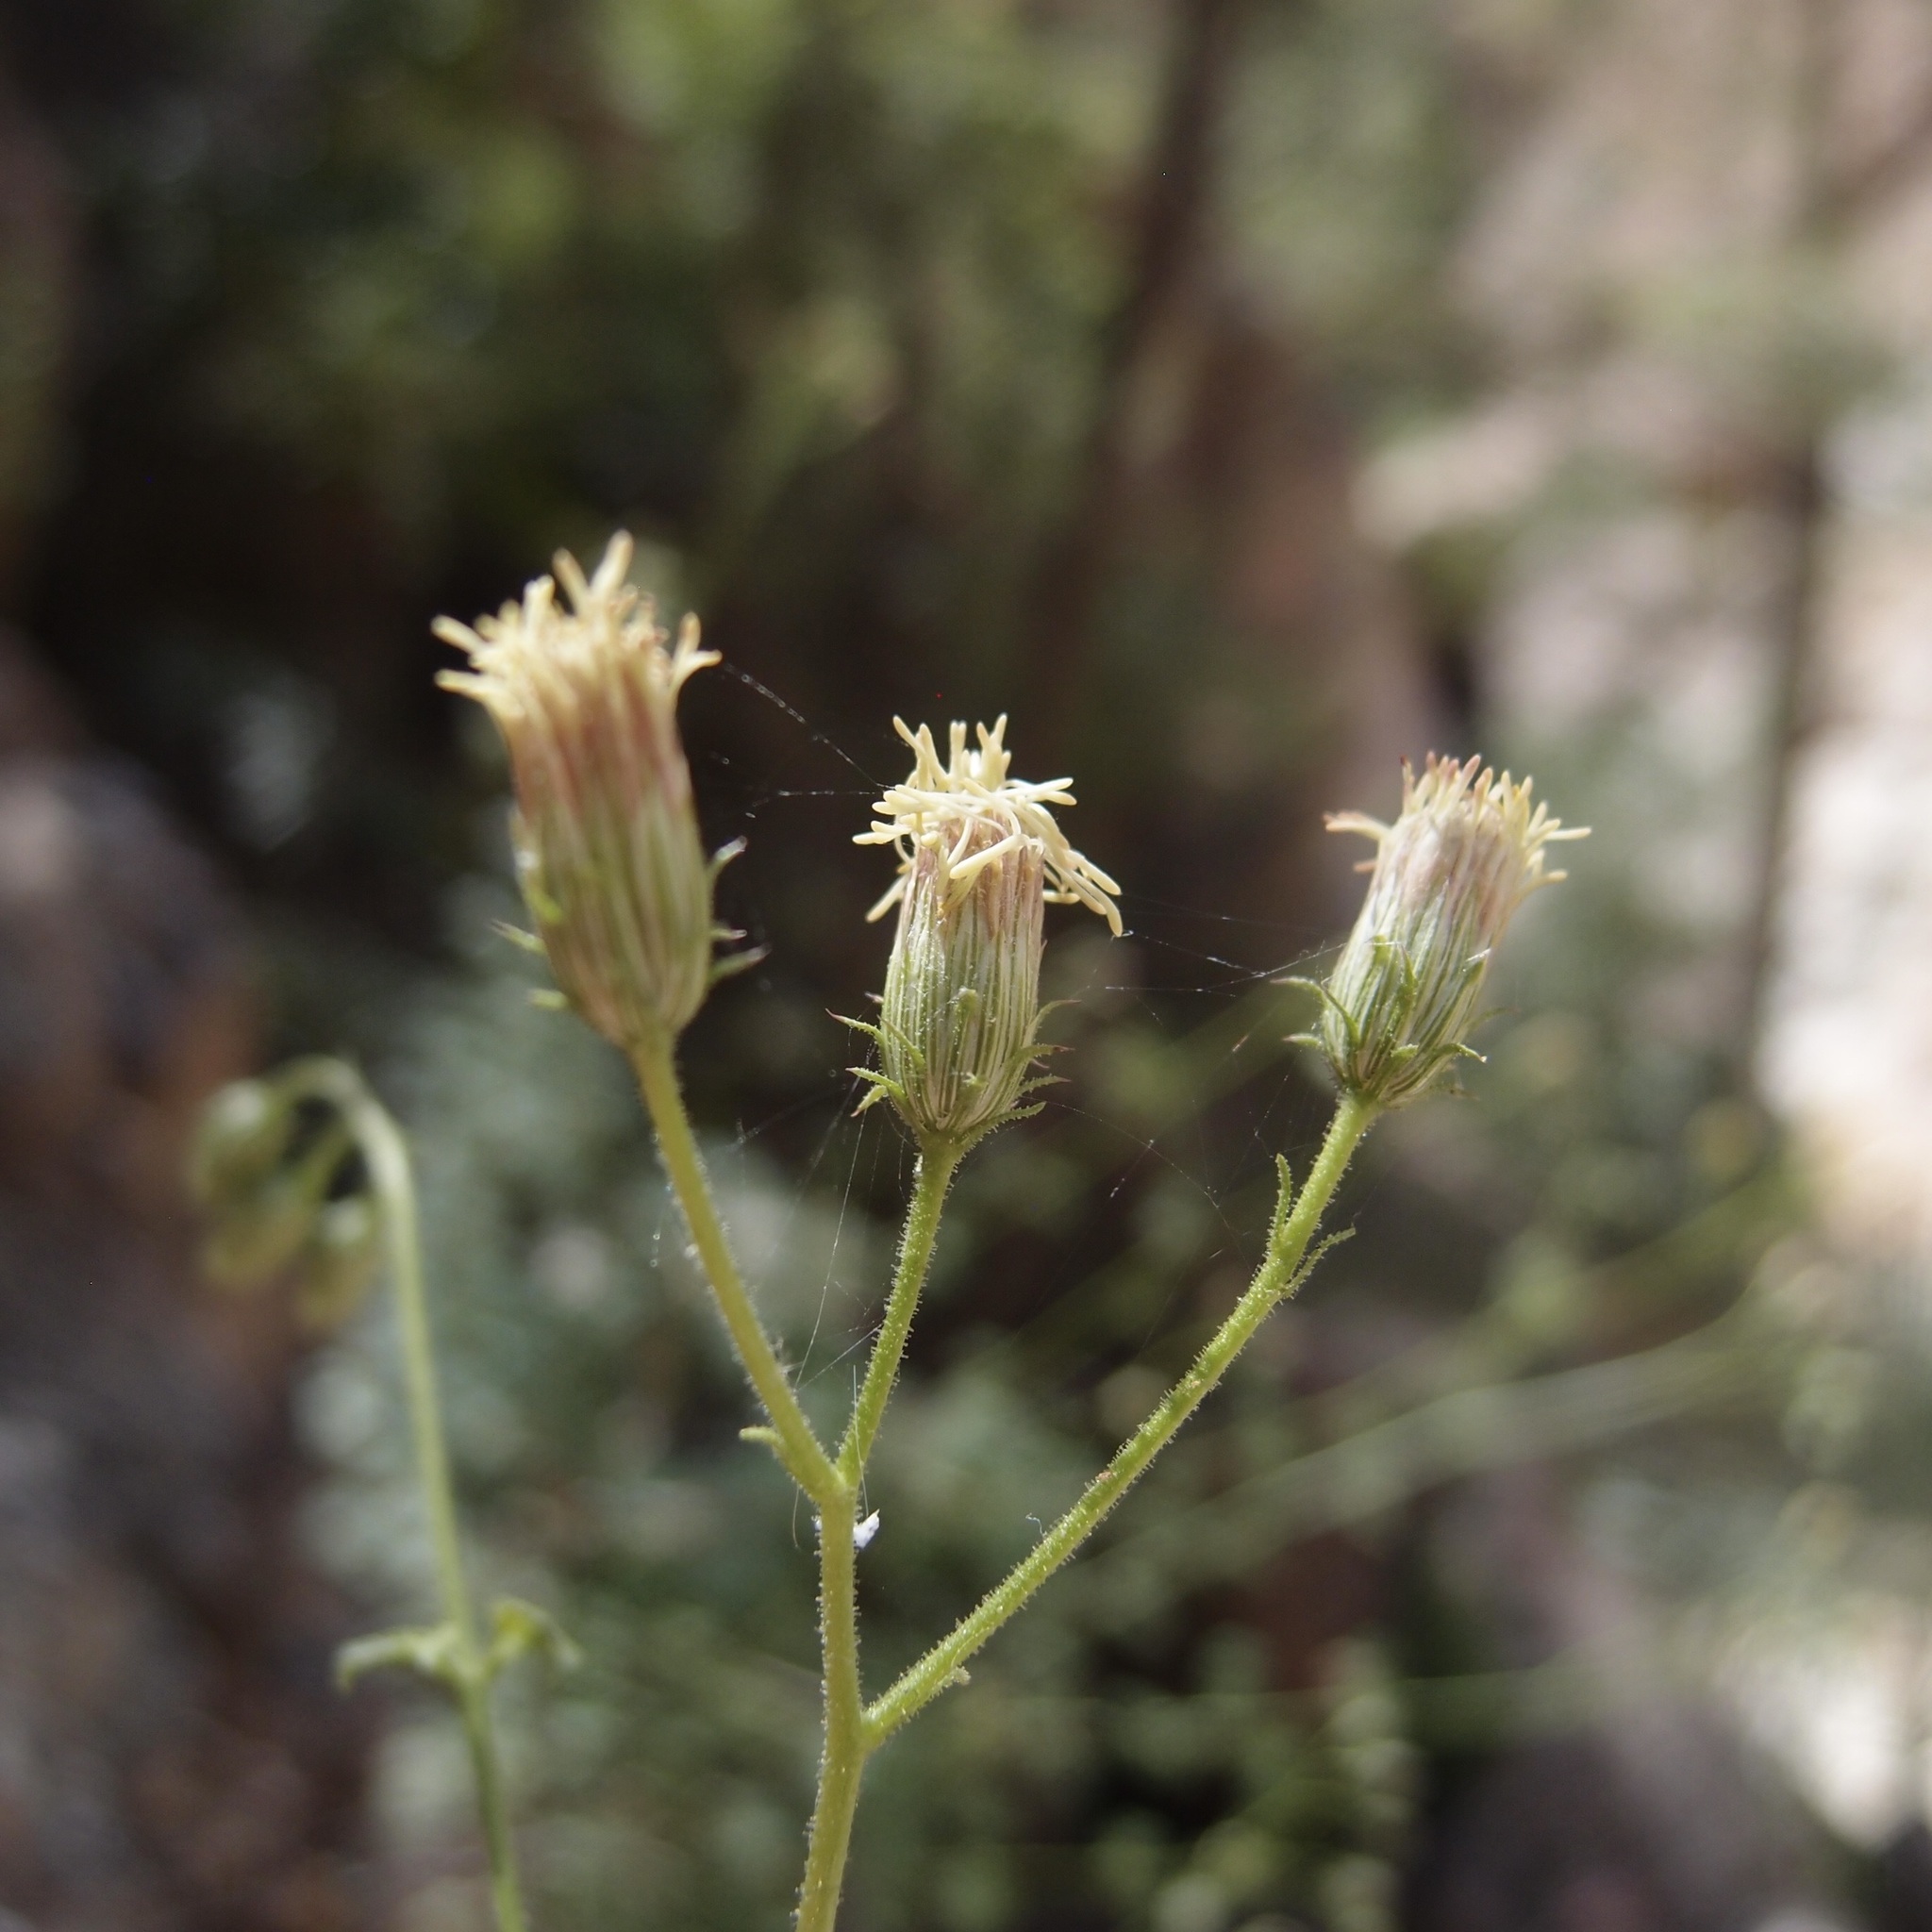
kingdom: Plantae
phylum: Tracheophyta
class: Magnoliopsida
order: Asterales
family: Asteraceae
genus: Pleurocoronis
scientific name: Pleurocoronis laphamioides
